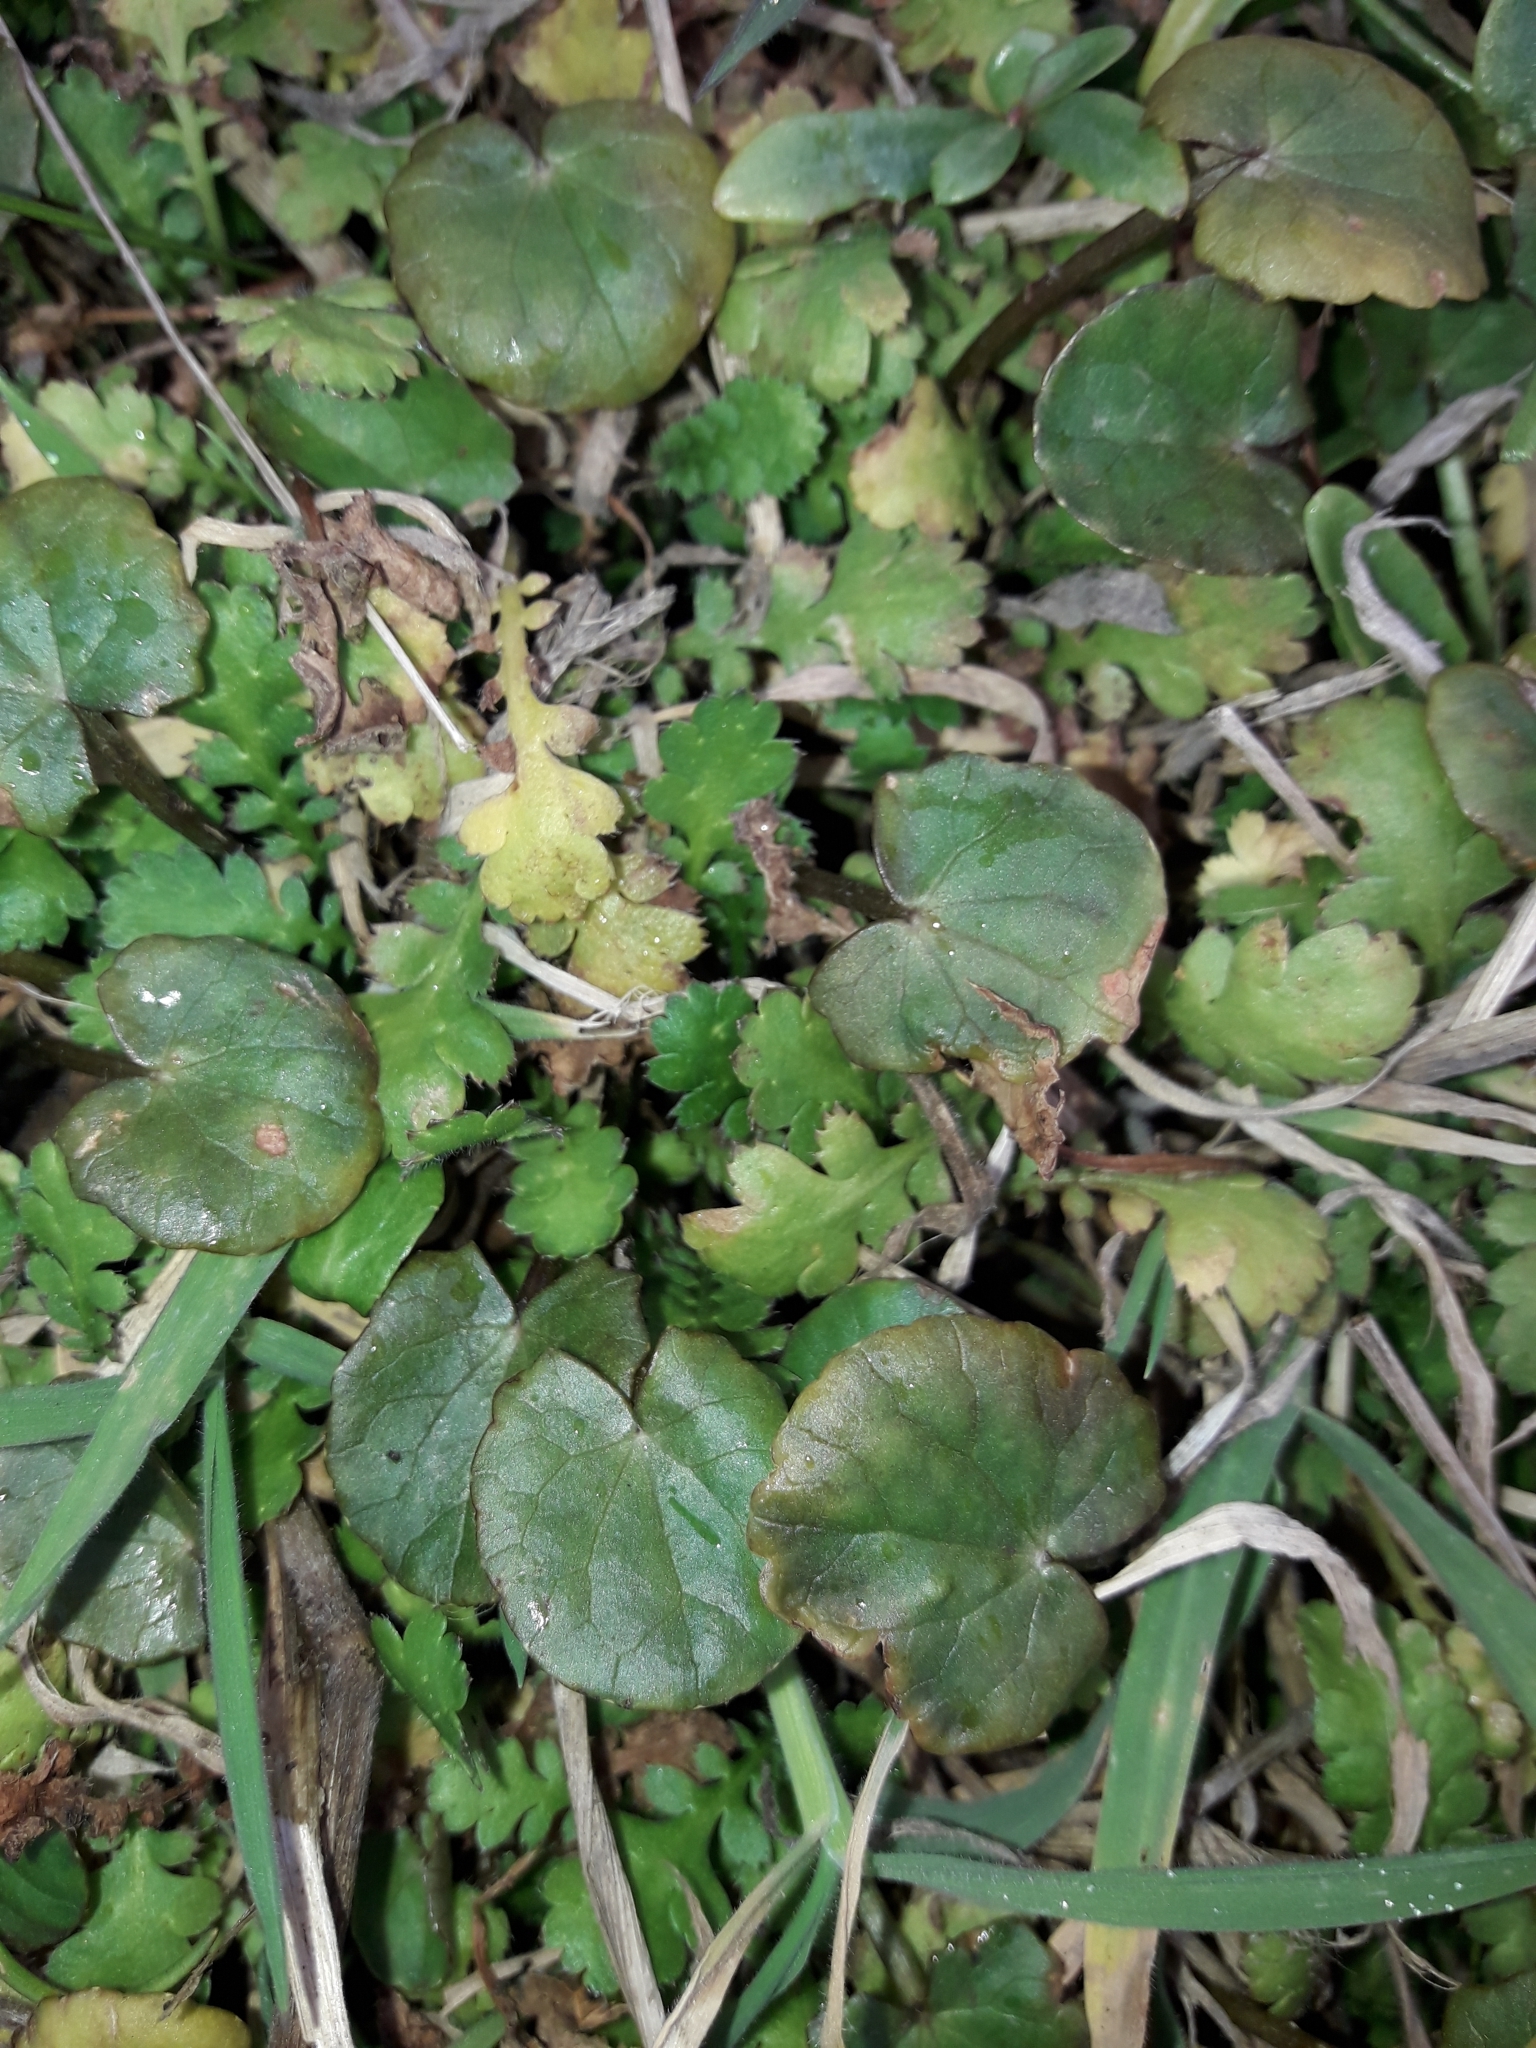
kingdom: Plantae
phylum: Tracheophyta
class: Magnoliopsida
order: Apiales
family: Apiaceae
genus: Centella
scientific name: Centella uniflora
